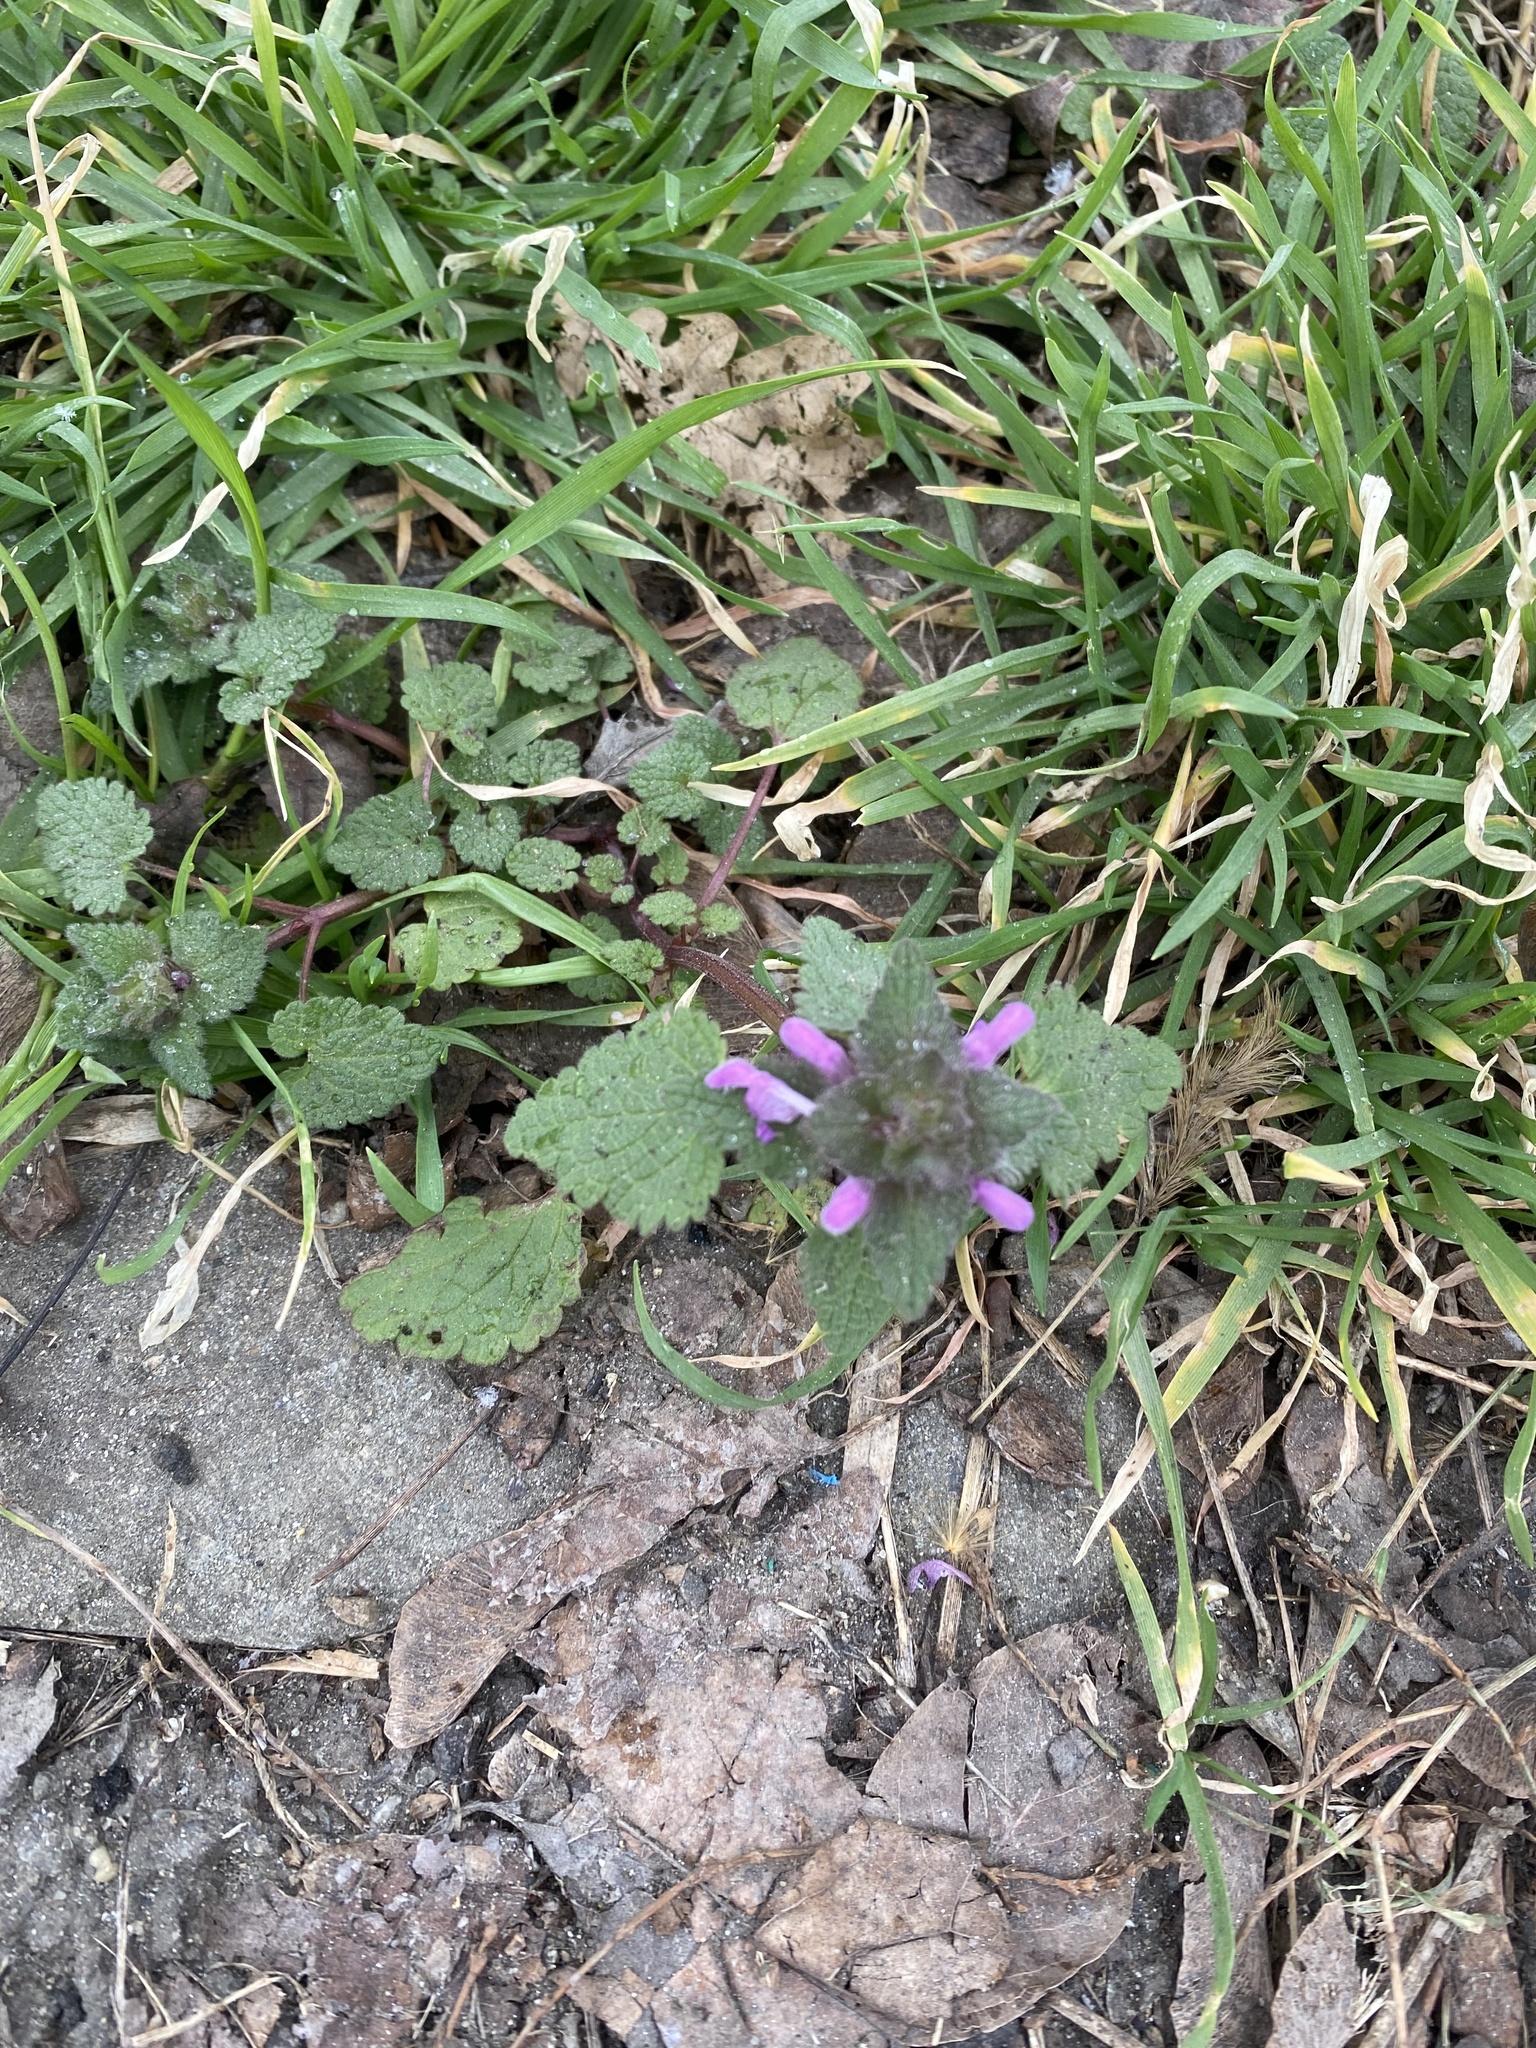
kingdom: Plantae
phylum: Tracheophyta
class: Magnoliopsida
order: Lamiales
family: Lamiaceae
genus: Lamium
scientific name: Lamium purpureum
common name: Red dead-nettle
